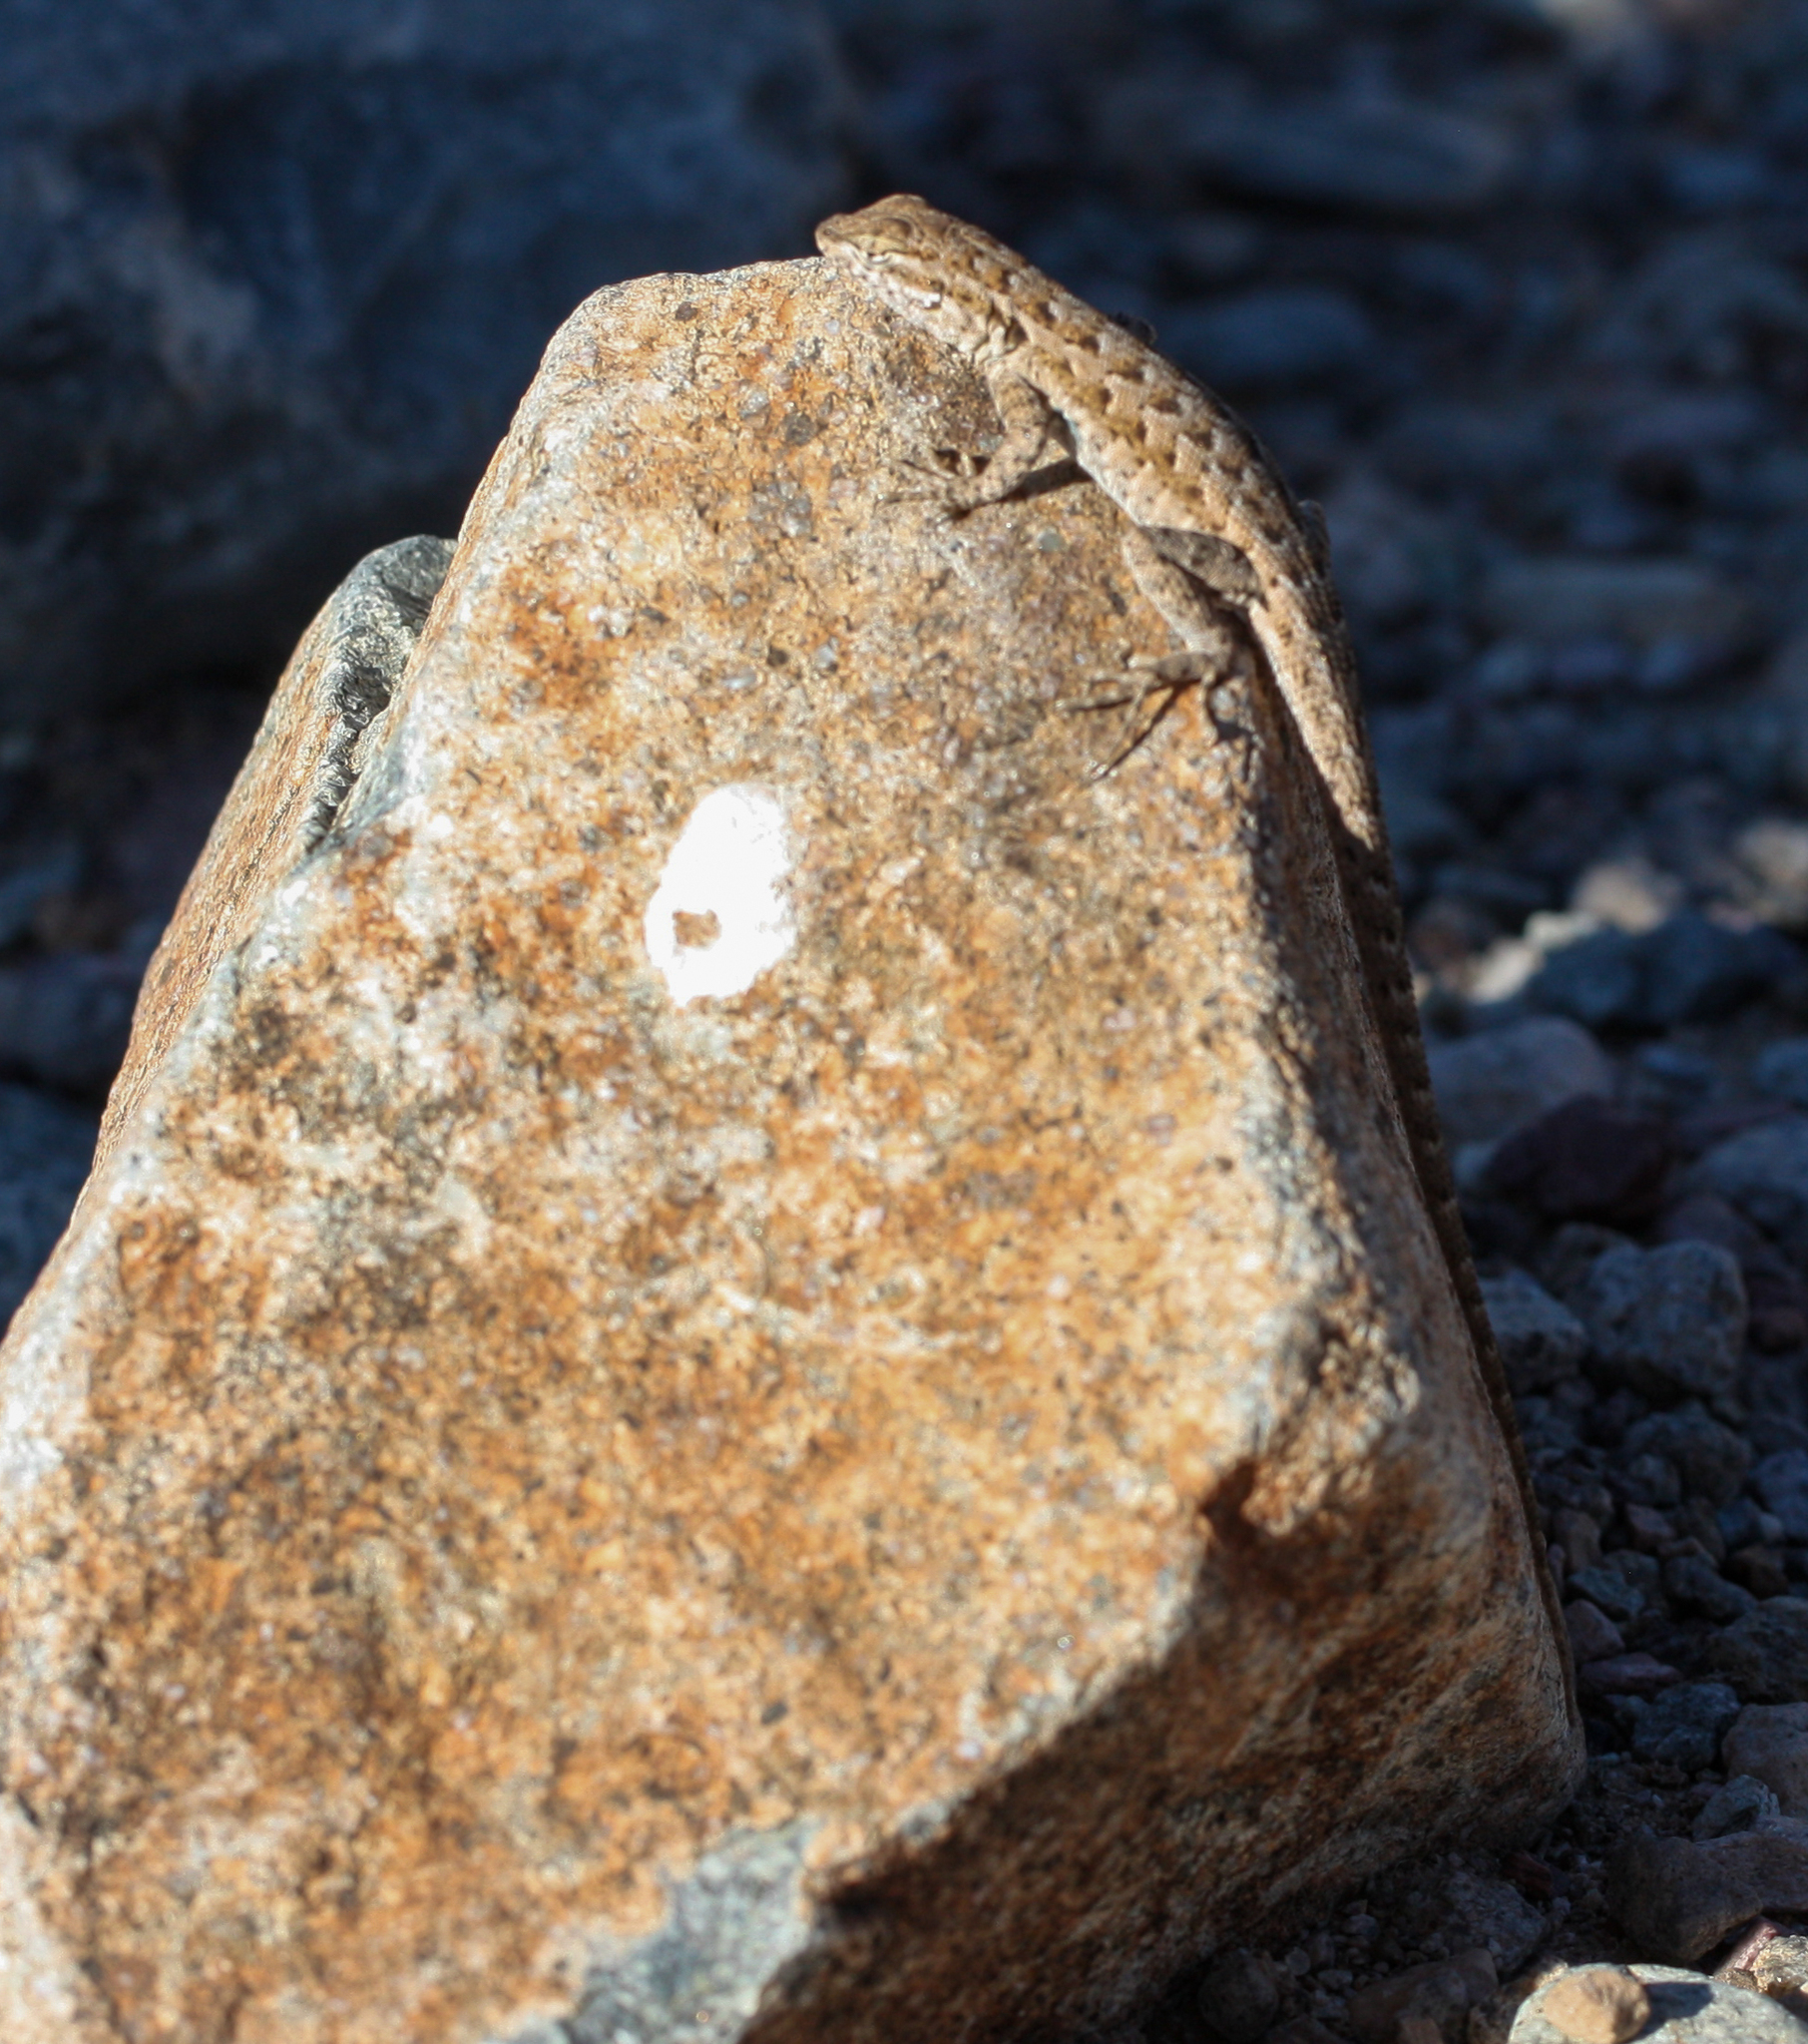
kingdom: Animalia
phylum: Chordata
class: Squamata
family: Phrynosomatidae
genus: Uta
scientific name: Uta stansburiana
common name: Side-blotched lizard
